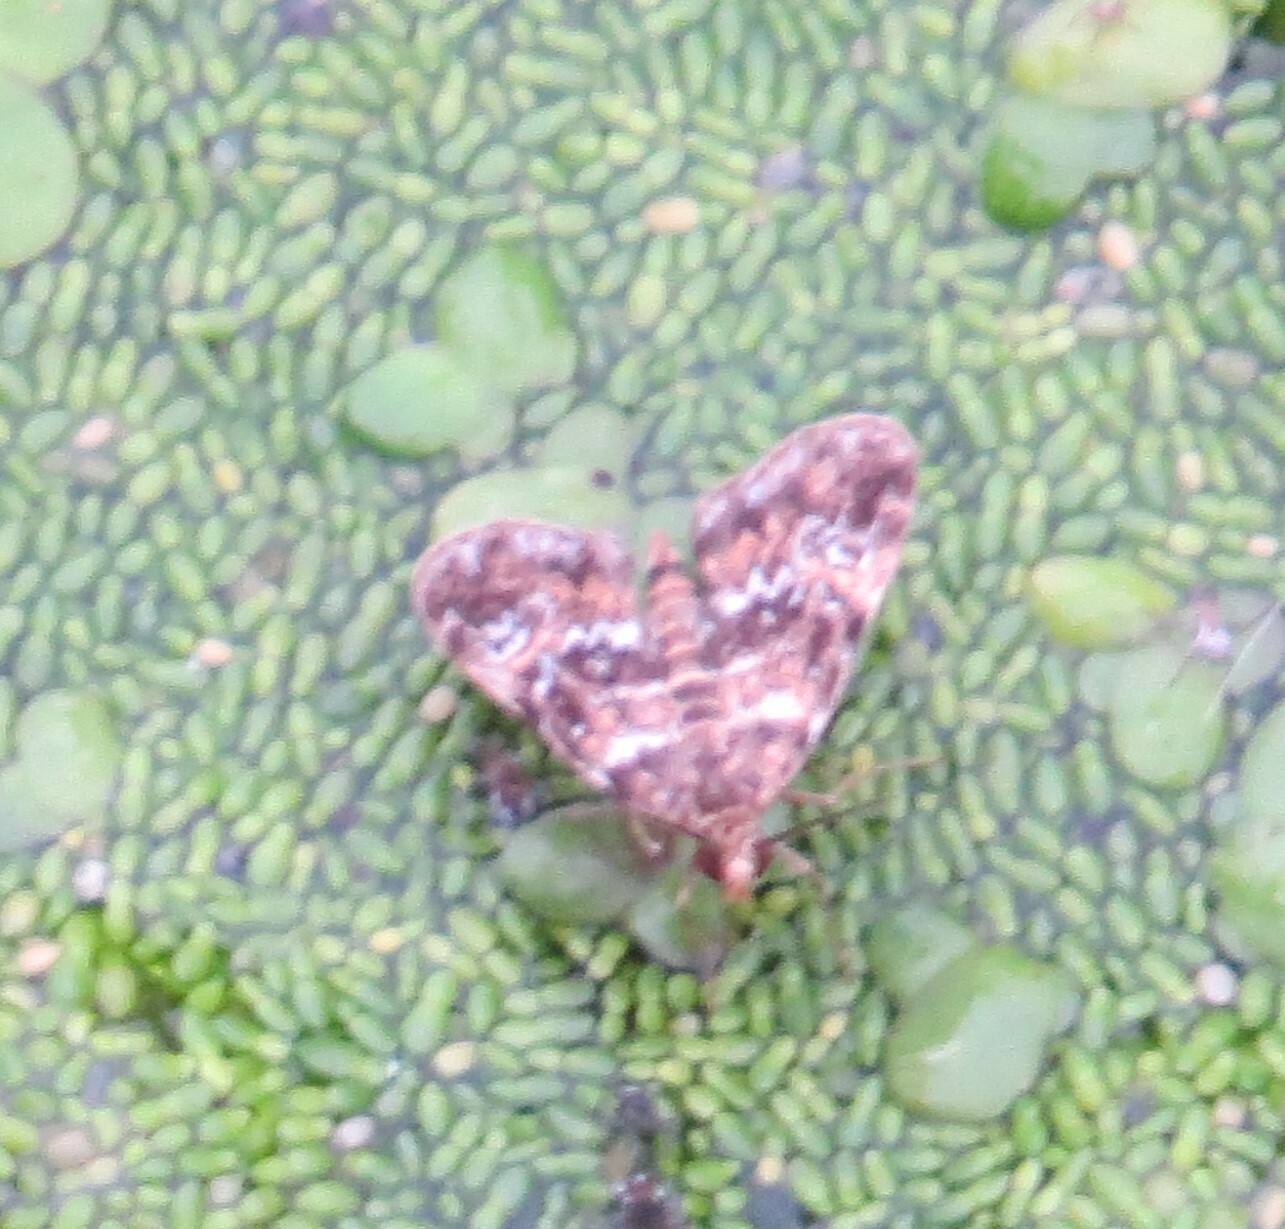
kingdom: Animalia
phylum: Arthropoda
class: Insecta
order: Lepidoptera
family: Crambidae
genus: Elophila
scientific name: Elophila obliteralis
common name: Waterlily leafcutter moth
